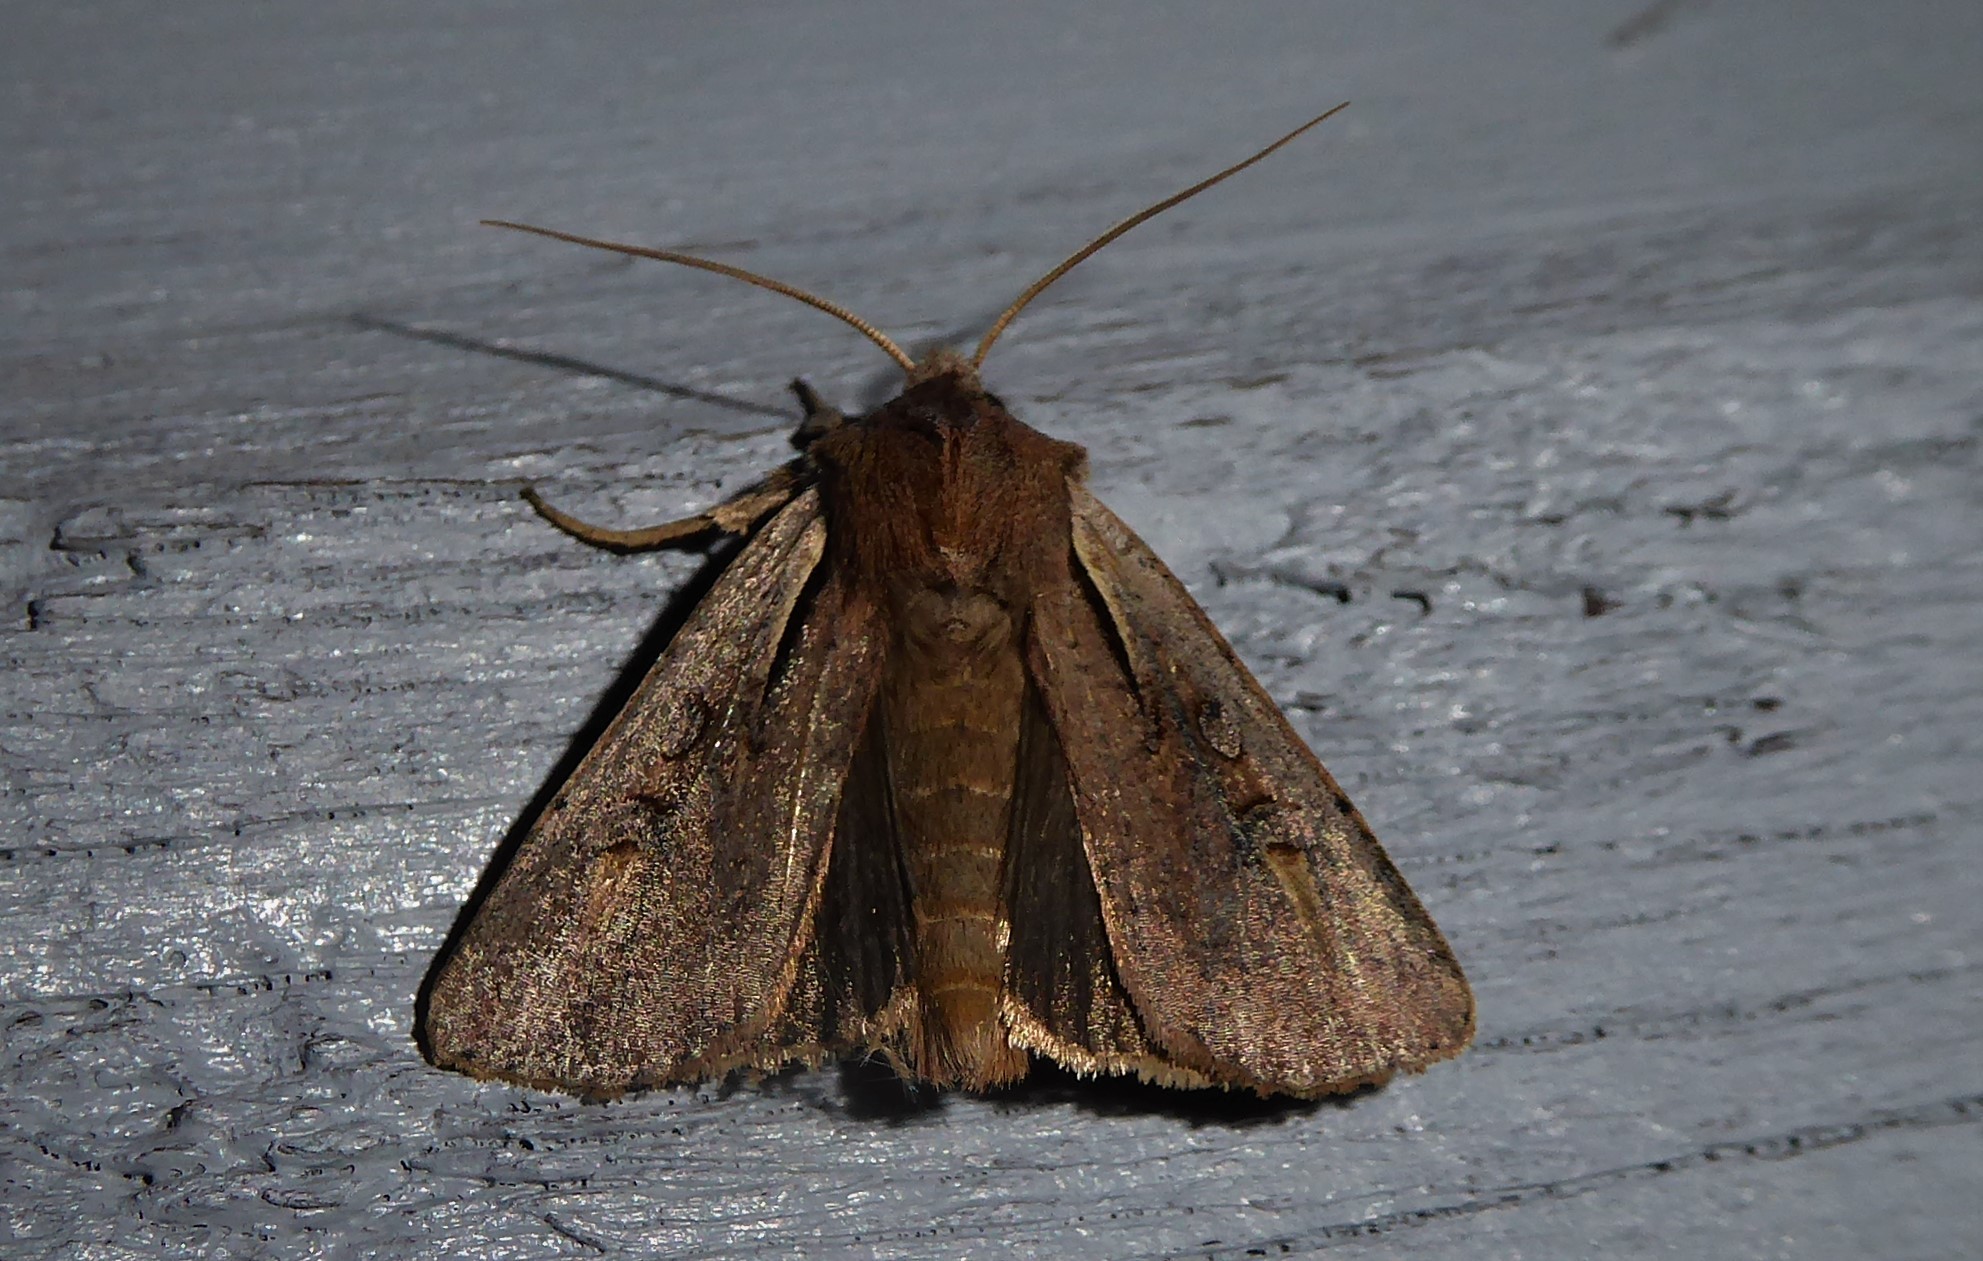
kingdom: Animalia
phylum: Arthropoda
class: Insecta
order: Lepidoptera
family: Noctuidae
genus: Ichneutica
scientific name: Ichneutica atristriga
